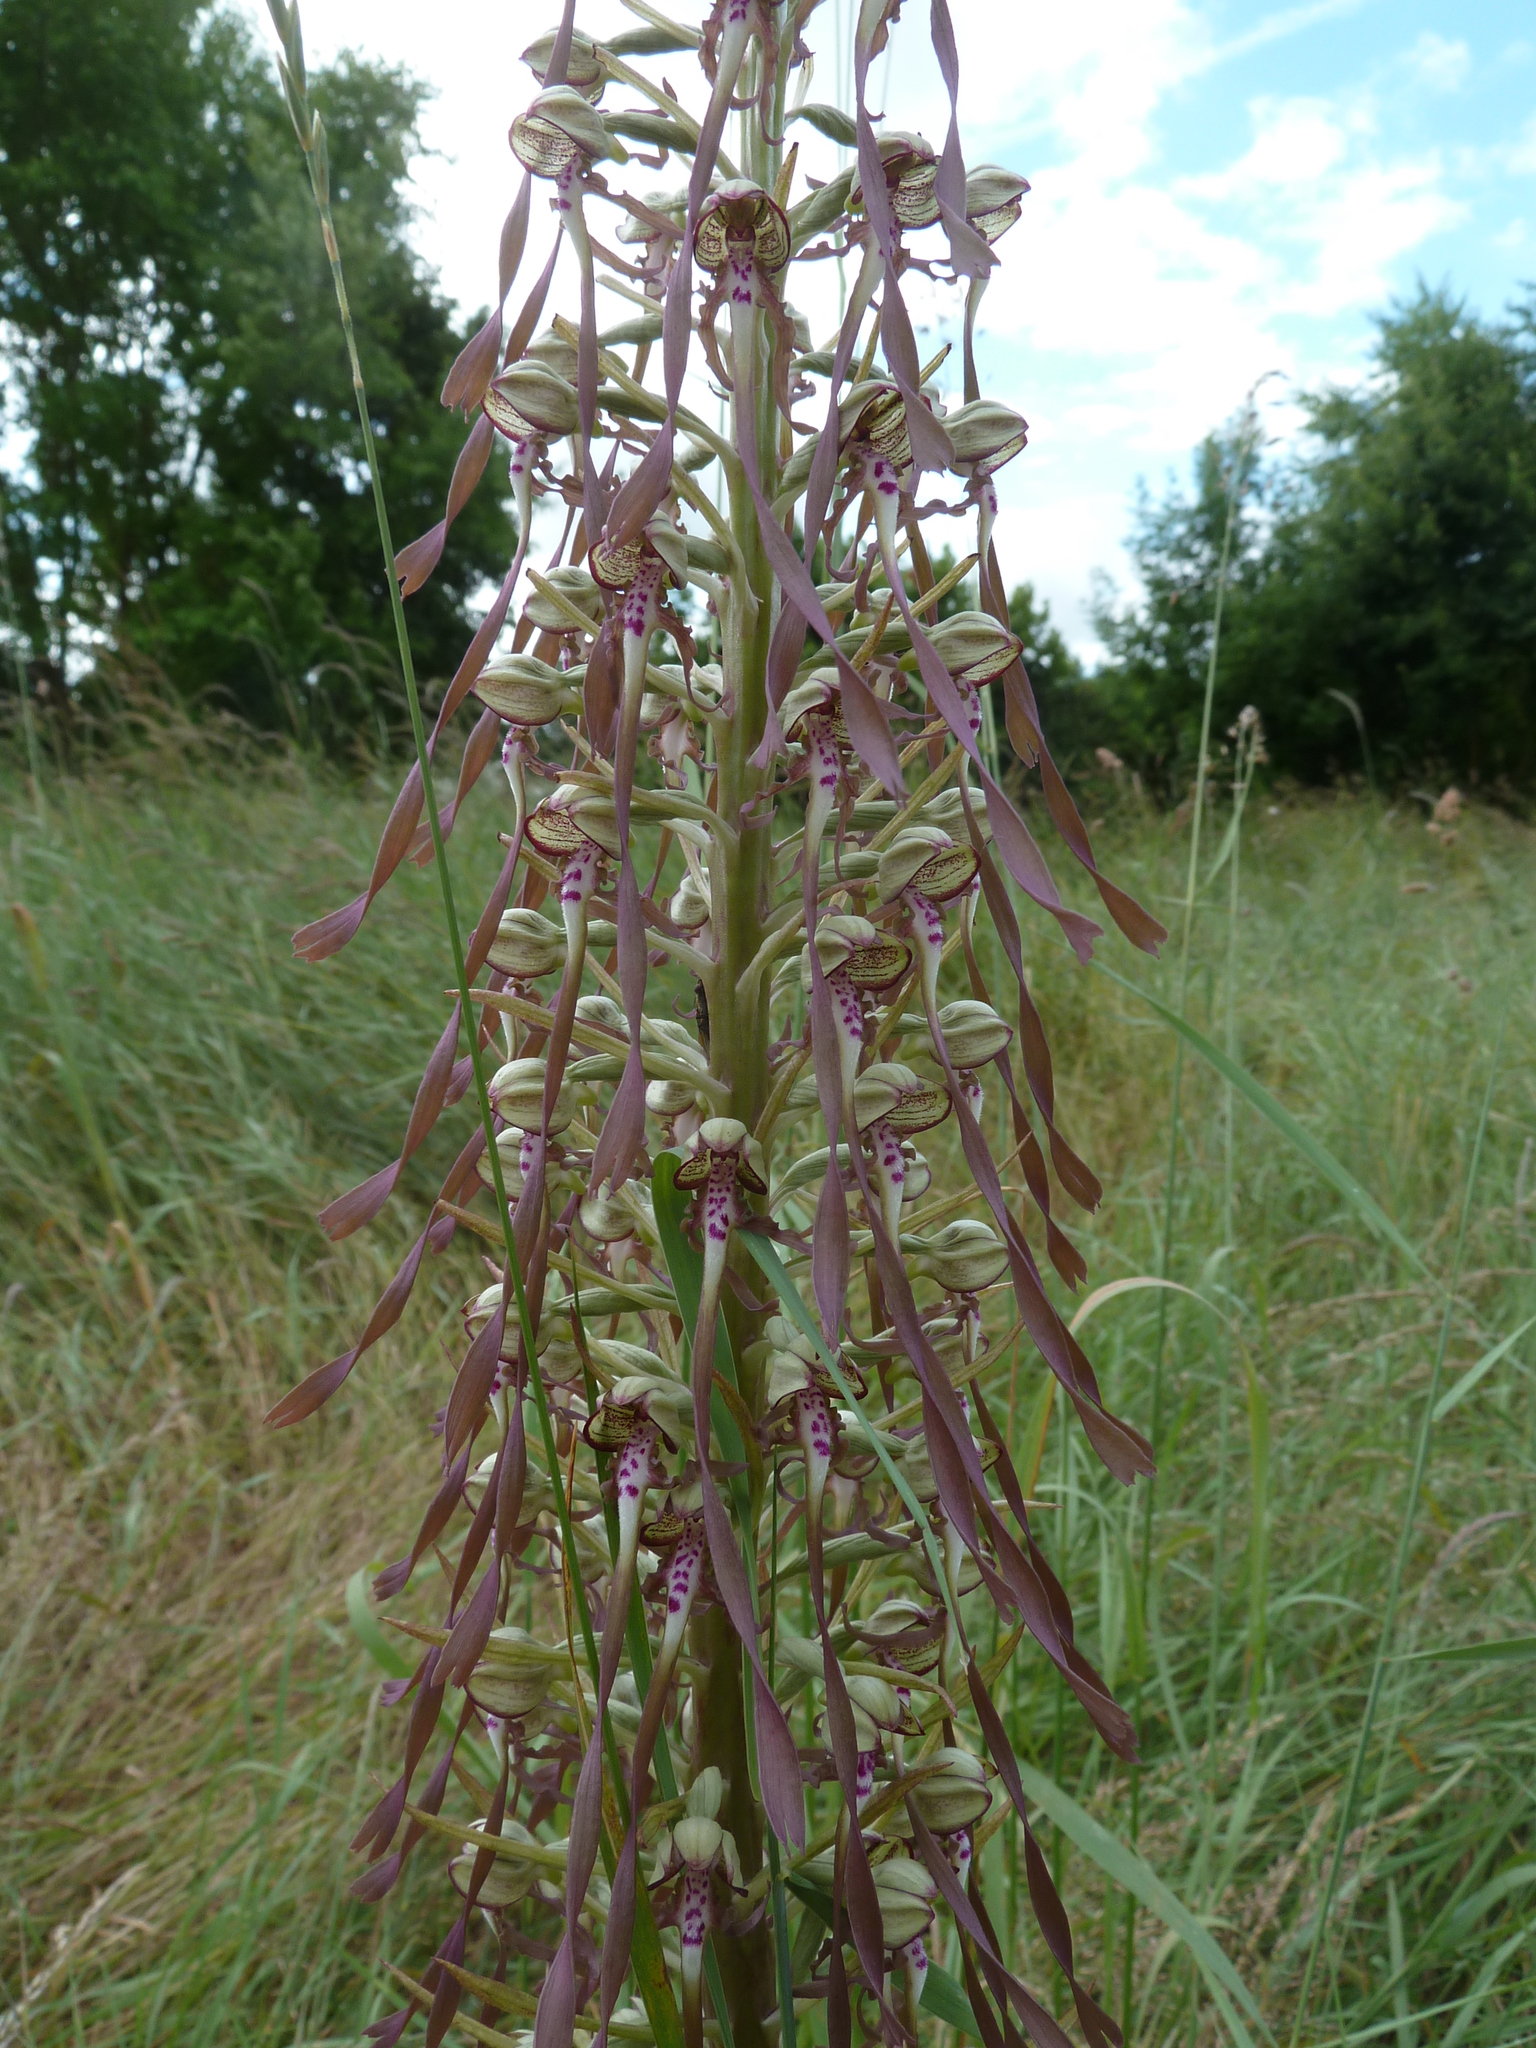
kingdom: Plantae
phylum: Tracheophyta
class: Liliopsida
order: Asparagales
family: Orchidaceae
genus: Himantoglossum
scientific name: Himantoglossum hircinum
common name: Lizard orchid
